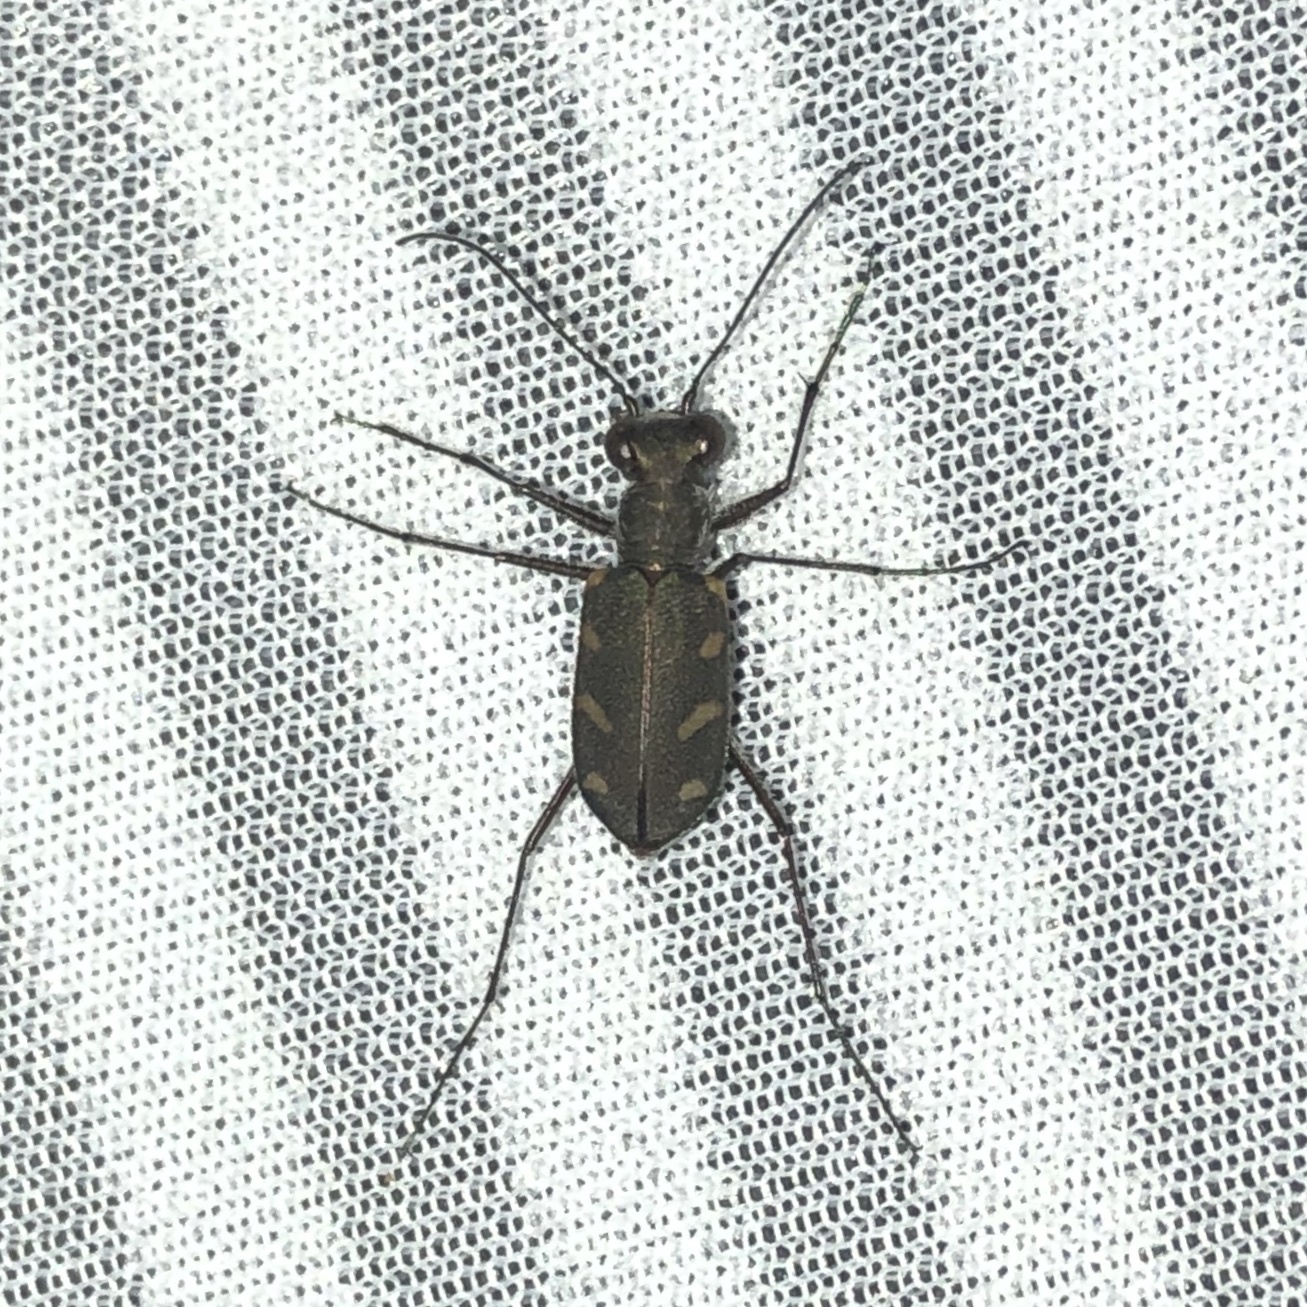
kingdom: Animalia
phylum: Arthropoda
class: Insecta
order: Coleoptera
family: Carabidae
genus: Cicindela
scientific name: Cicindela favergeri
